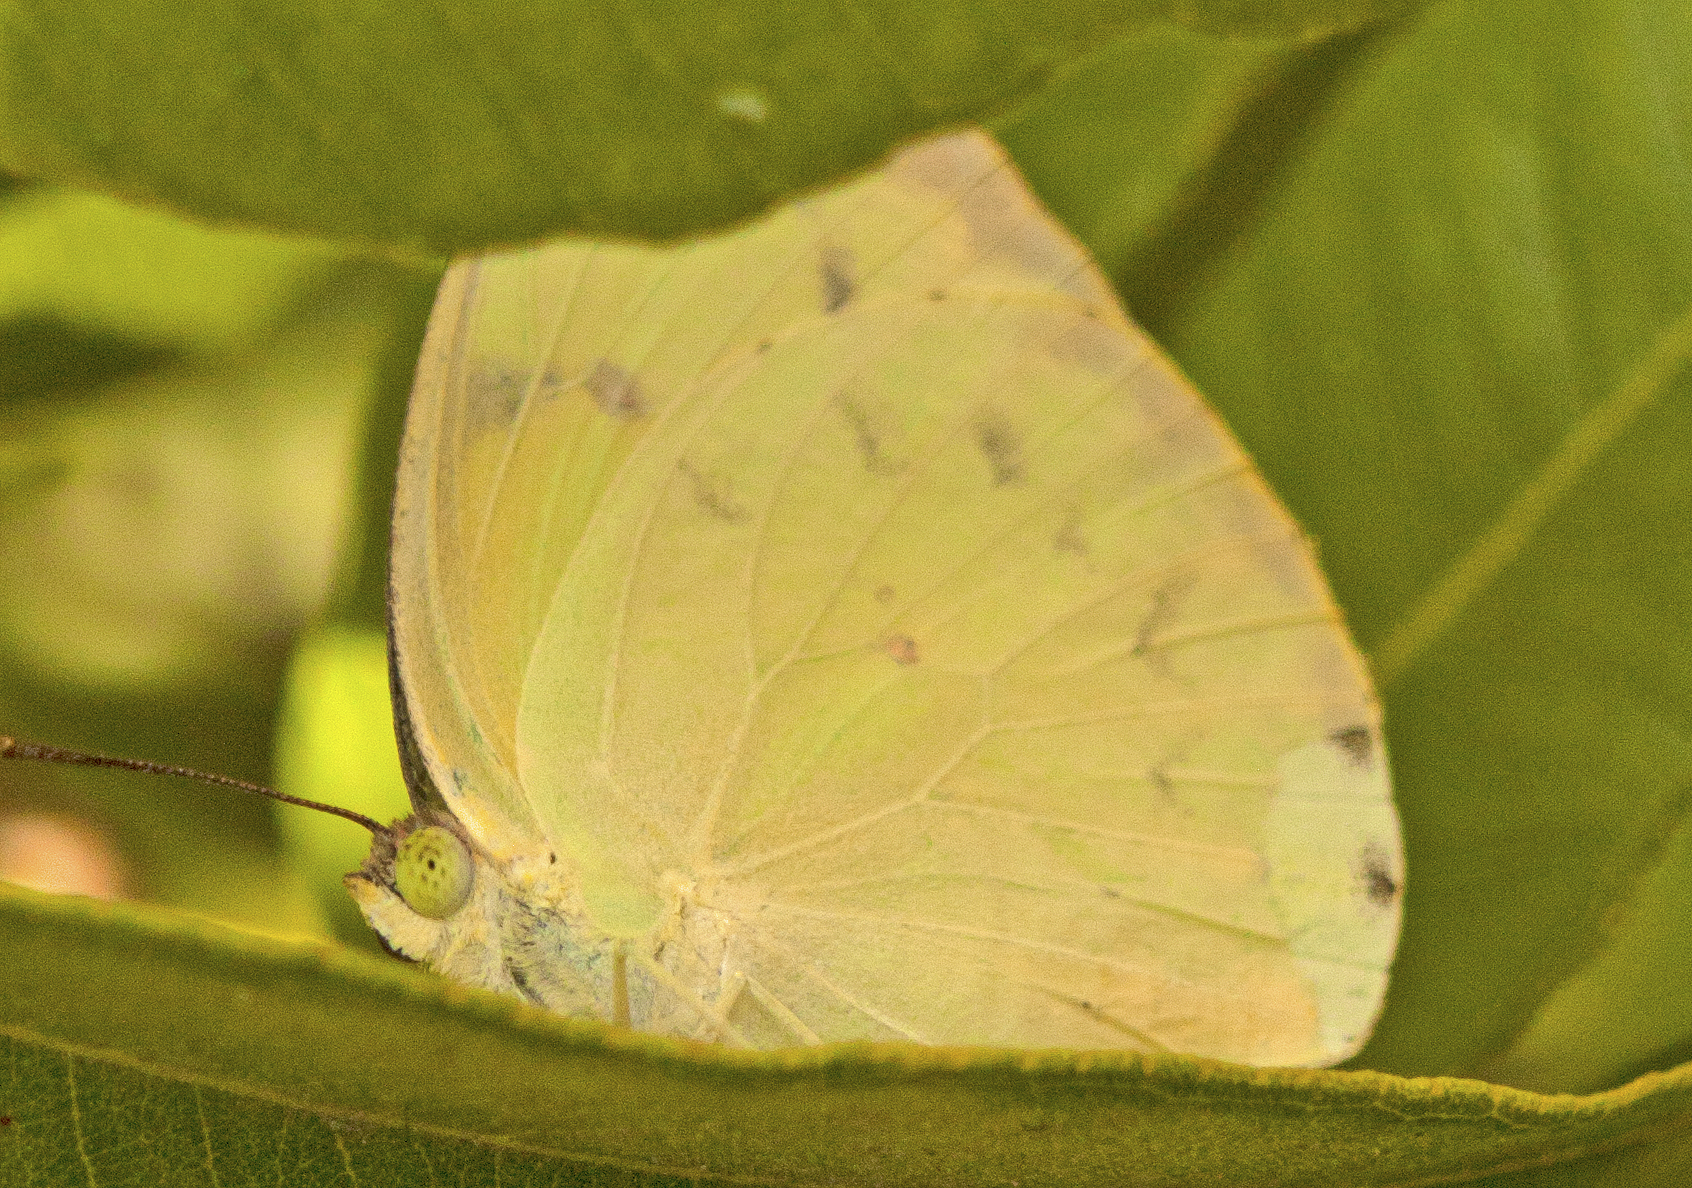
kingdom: Animalia
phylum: Arthropoda
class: Insecta
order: Lepidoptera
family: Pieridae
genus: Catopsilia
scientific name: Catopsilia pomona
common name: Common emigrant
